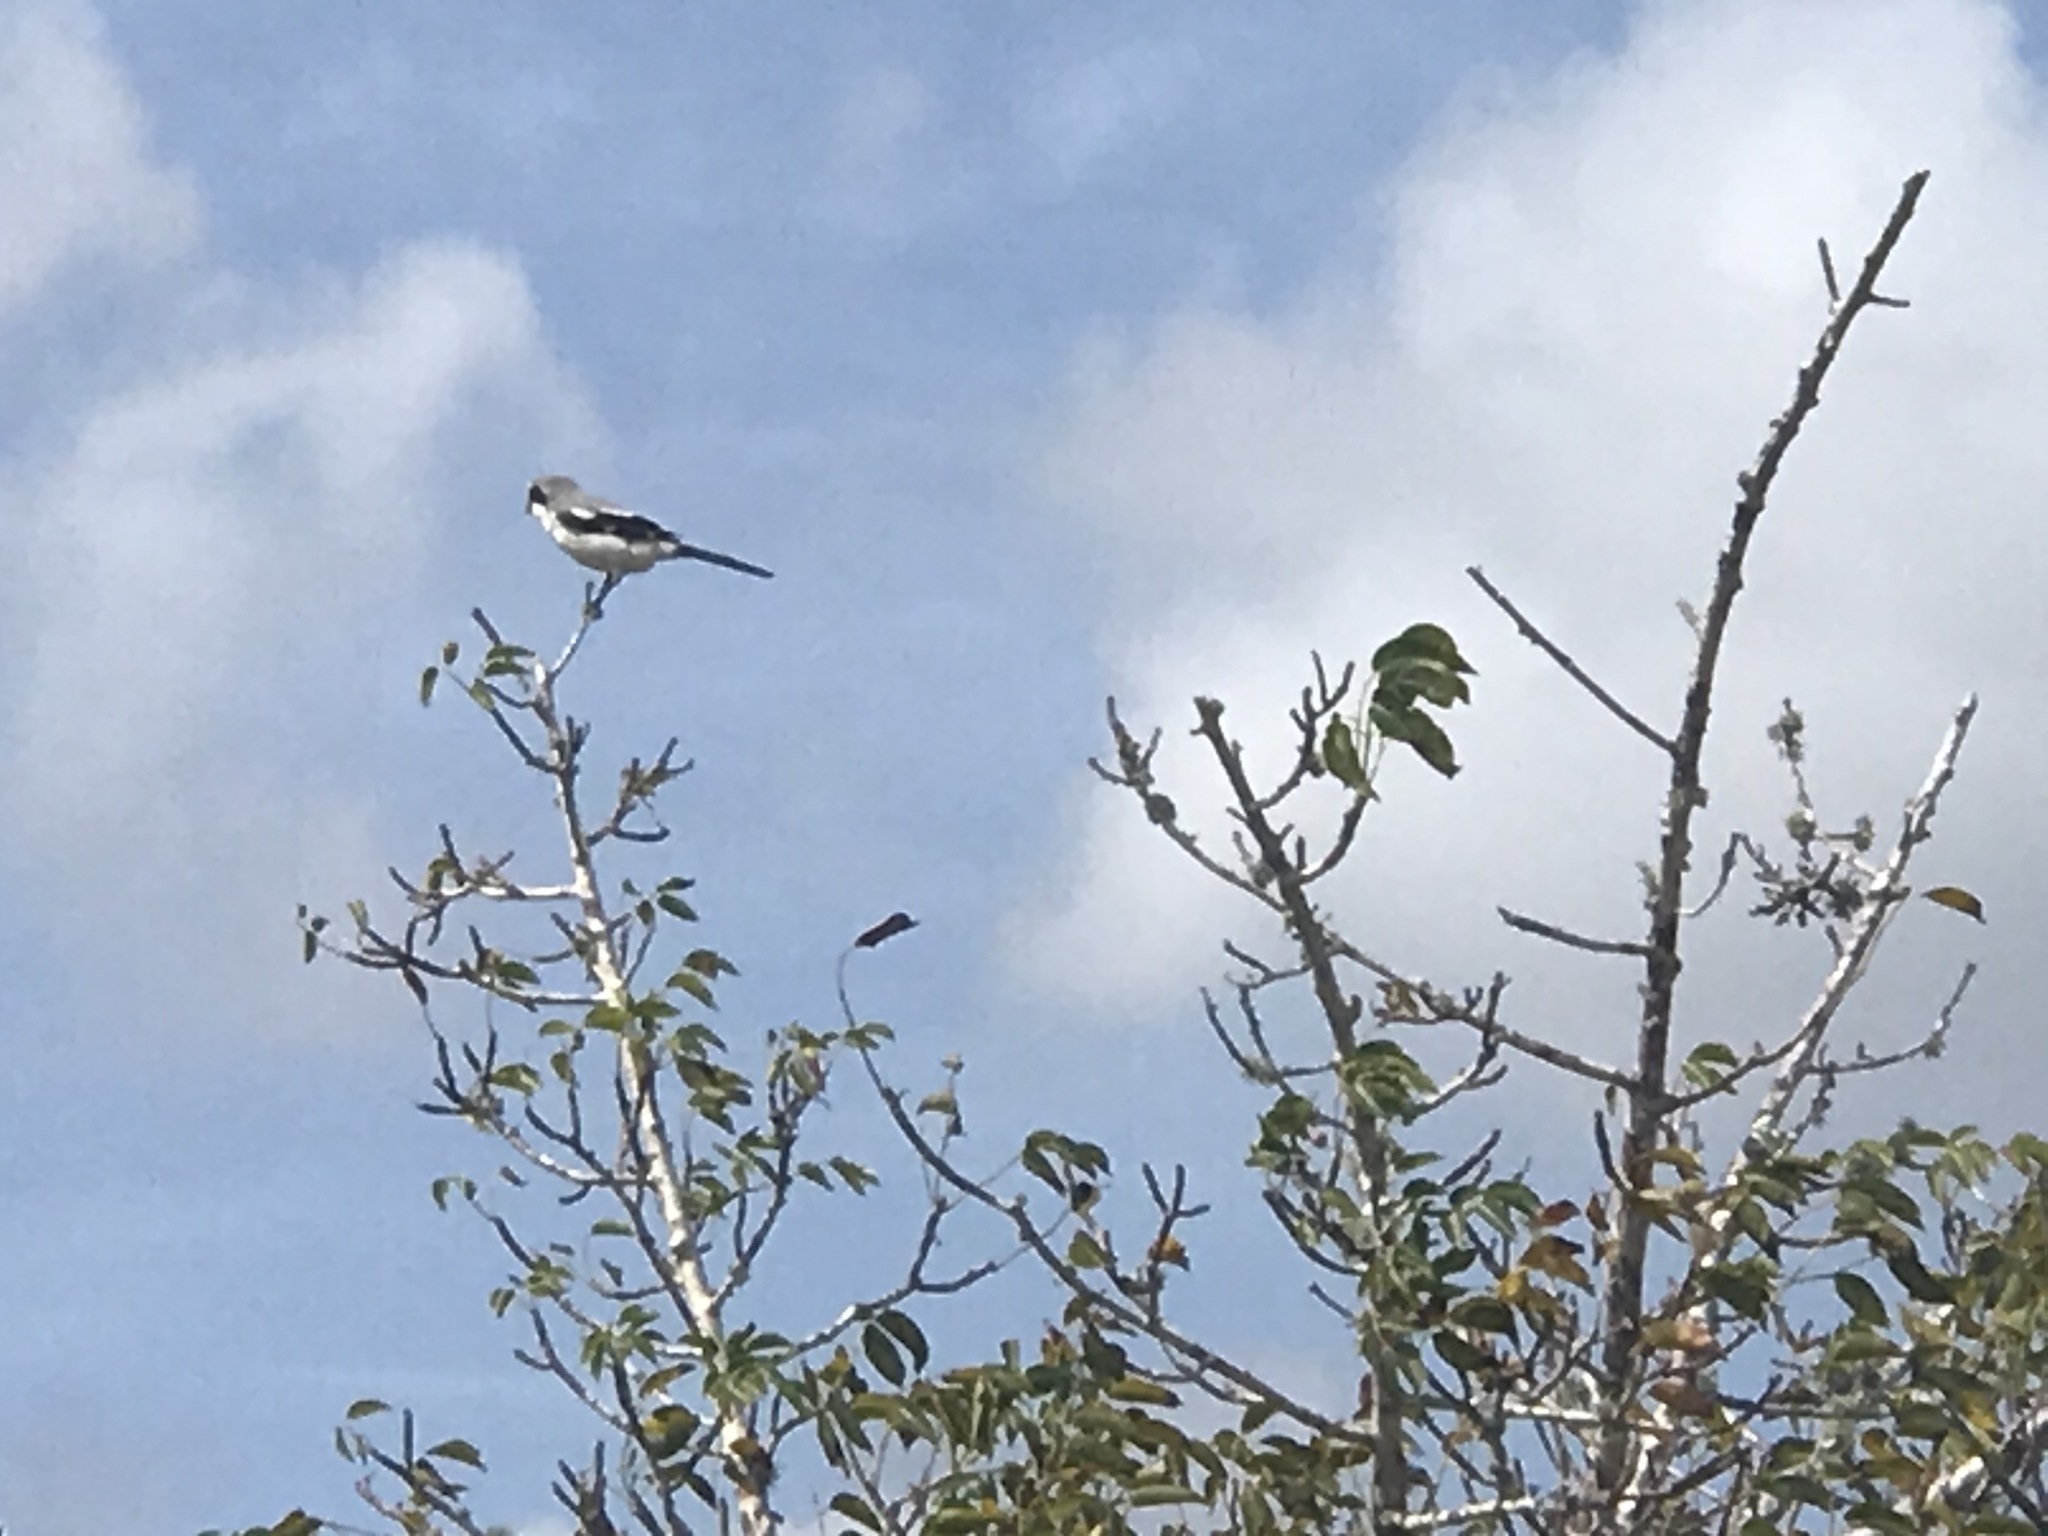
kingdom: Animalia
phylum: Chordata
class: Aves
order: Passeriformes
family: Laniidae
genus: Lanius
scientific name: Lanius ludovicianus
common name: Loggerhead shrike
